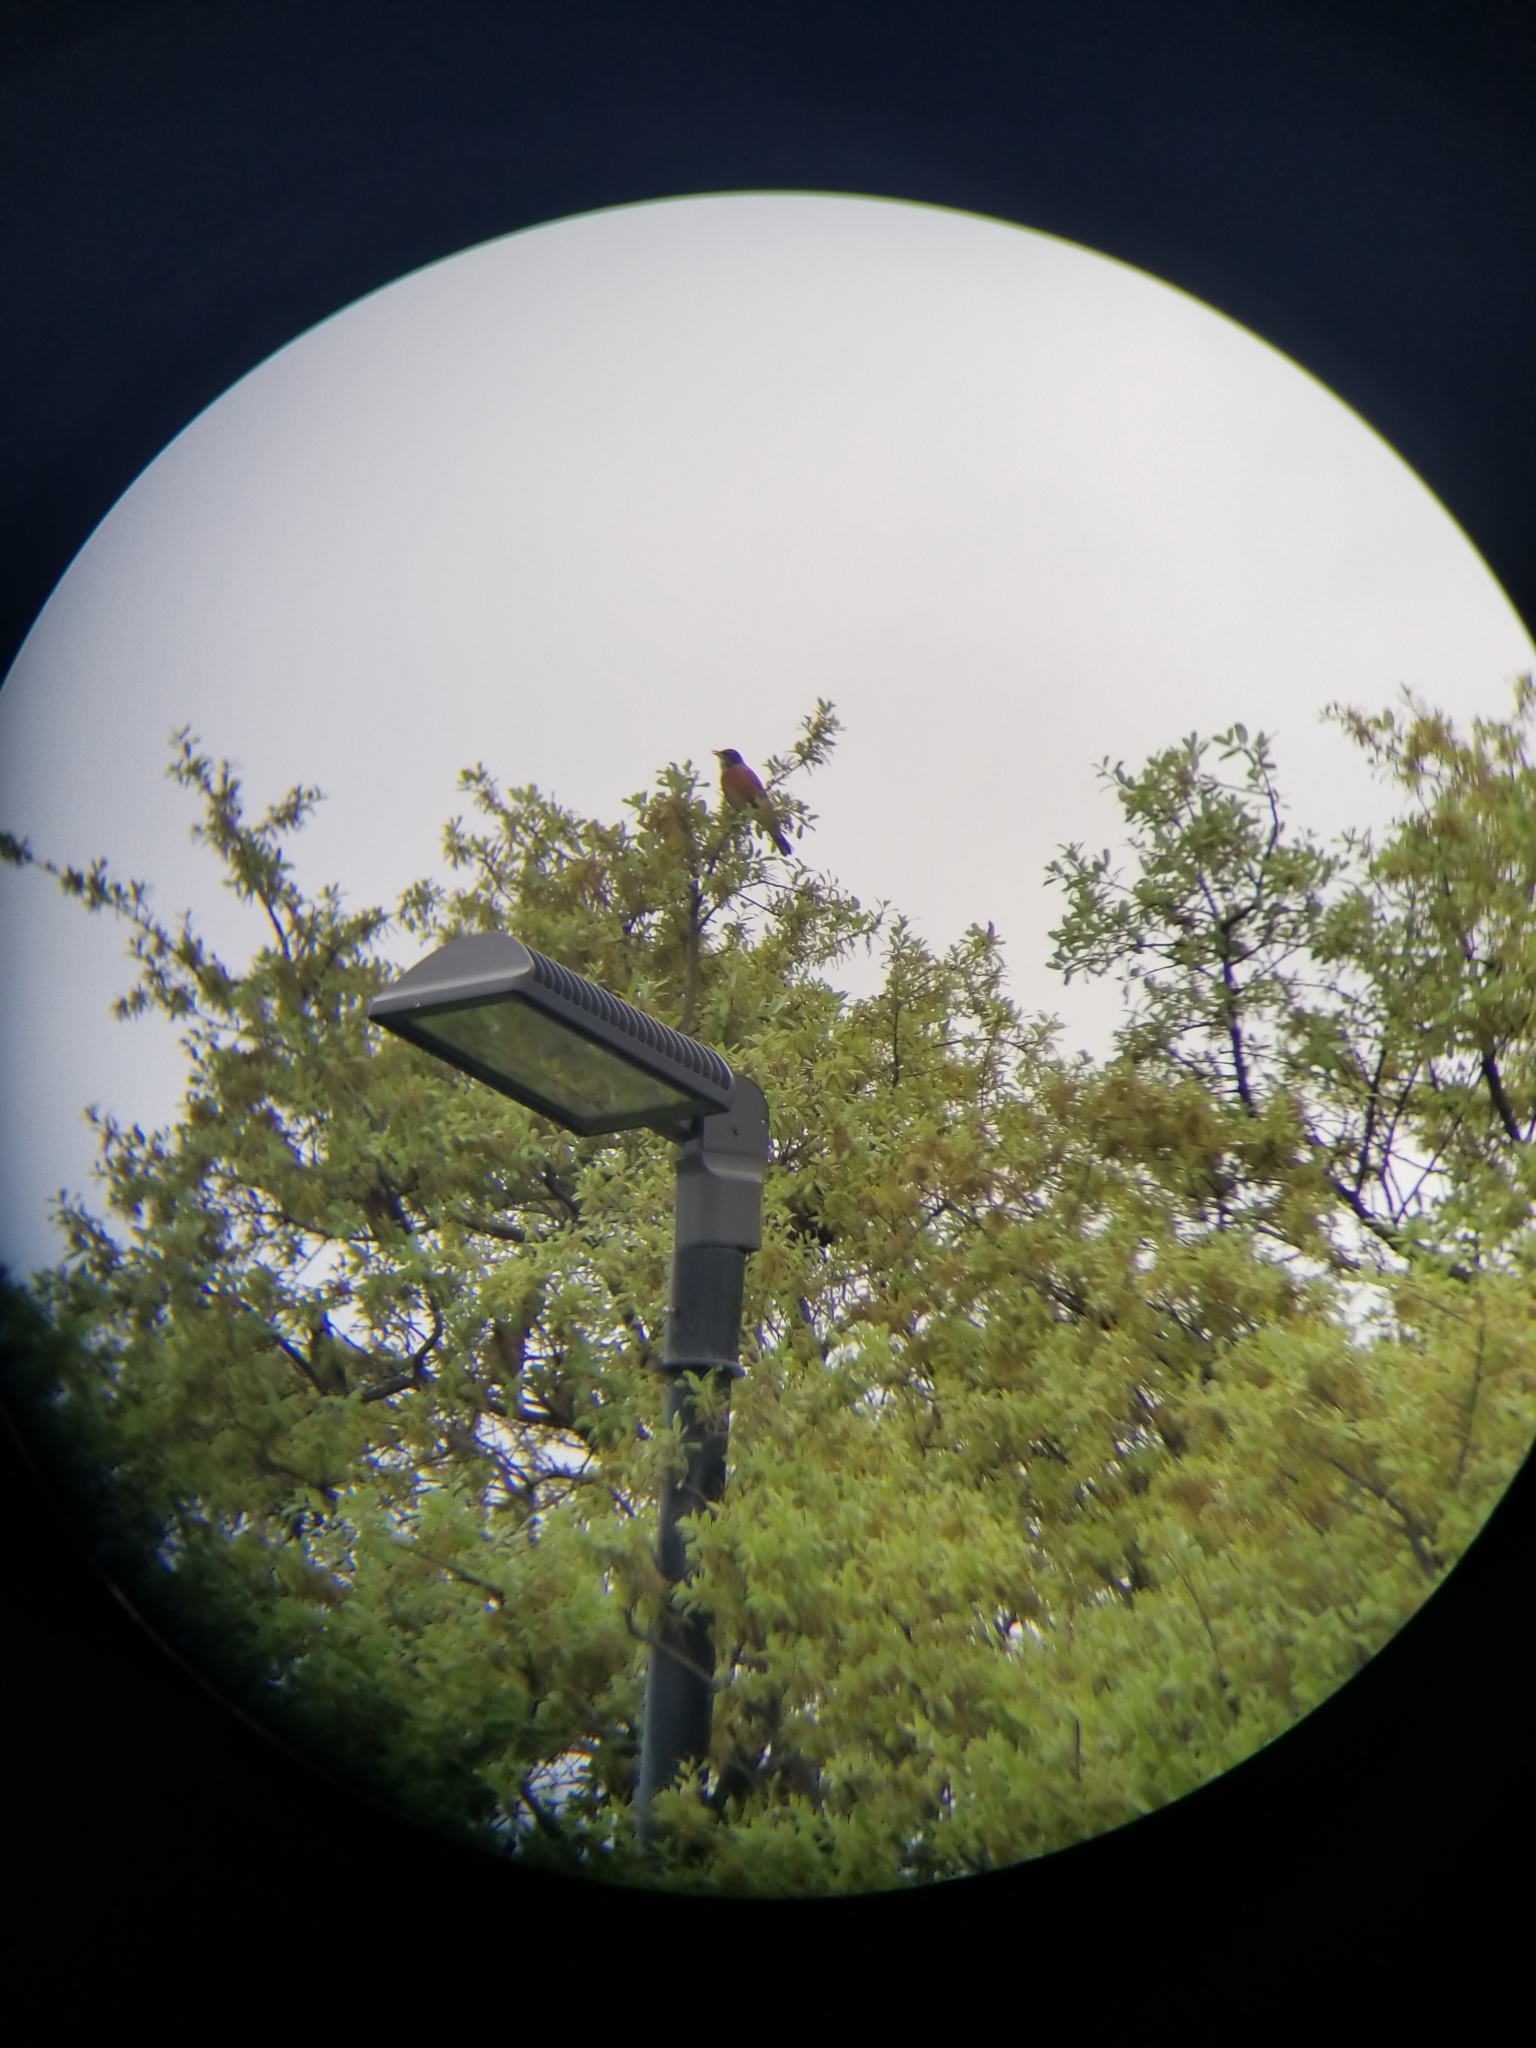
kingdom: Animalia
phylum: Chordata
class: Aves
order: Passeriformes
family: Turdidae
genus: Turdus
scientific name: Turdus migratorius
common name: American robin
